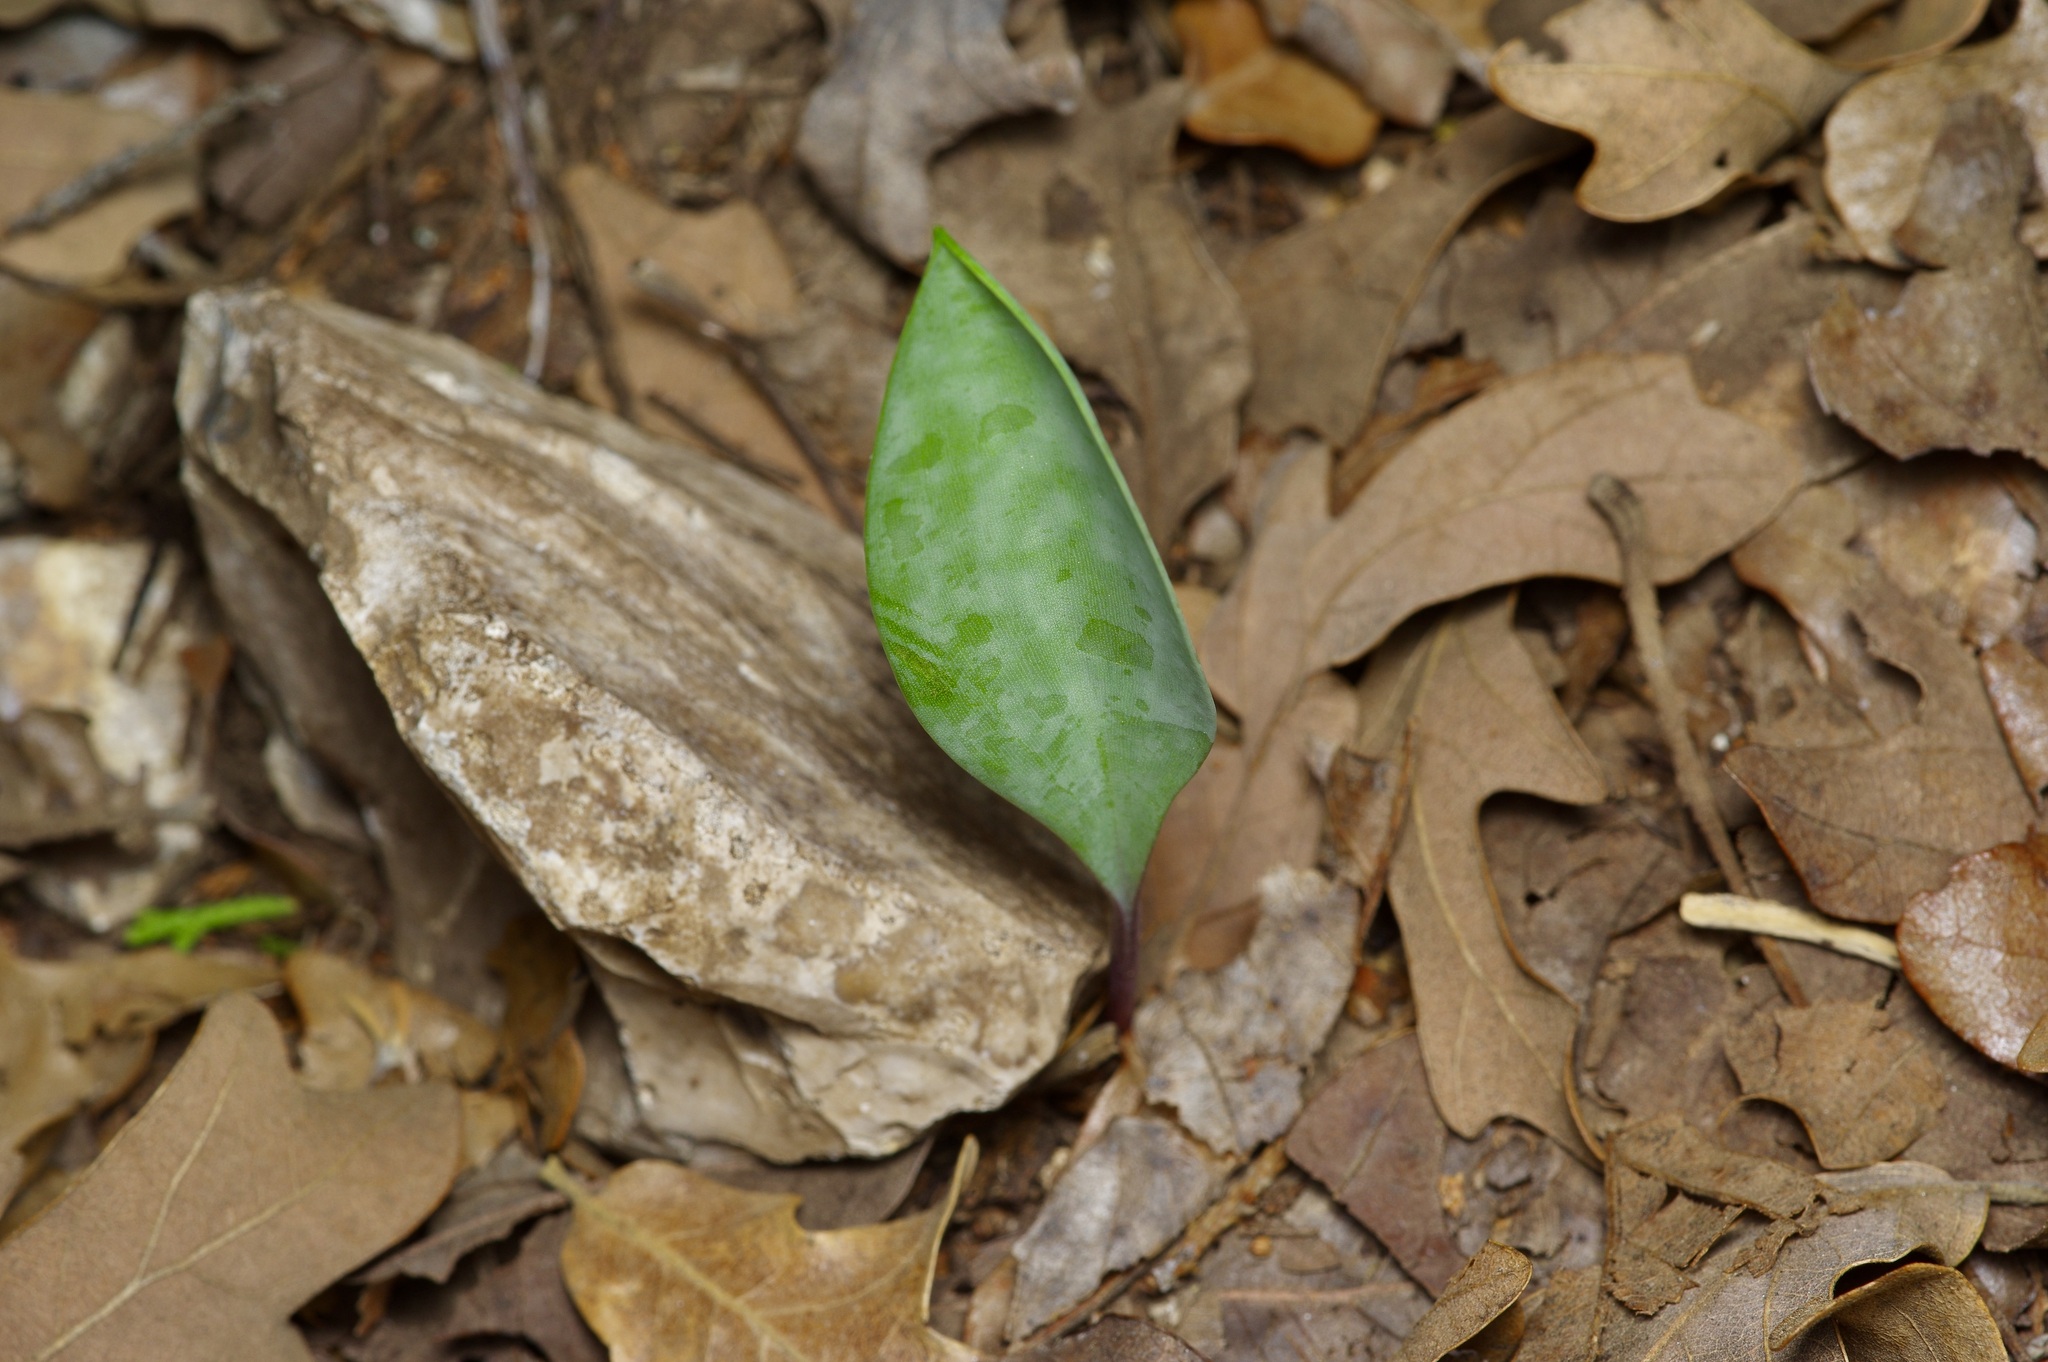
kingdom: Plantae
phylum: Tracheophyta
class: Liliopsida
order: Liliales
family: Liliaceae
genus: Erythronium
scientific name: Erythronium albidum
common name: White trout-lily
